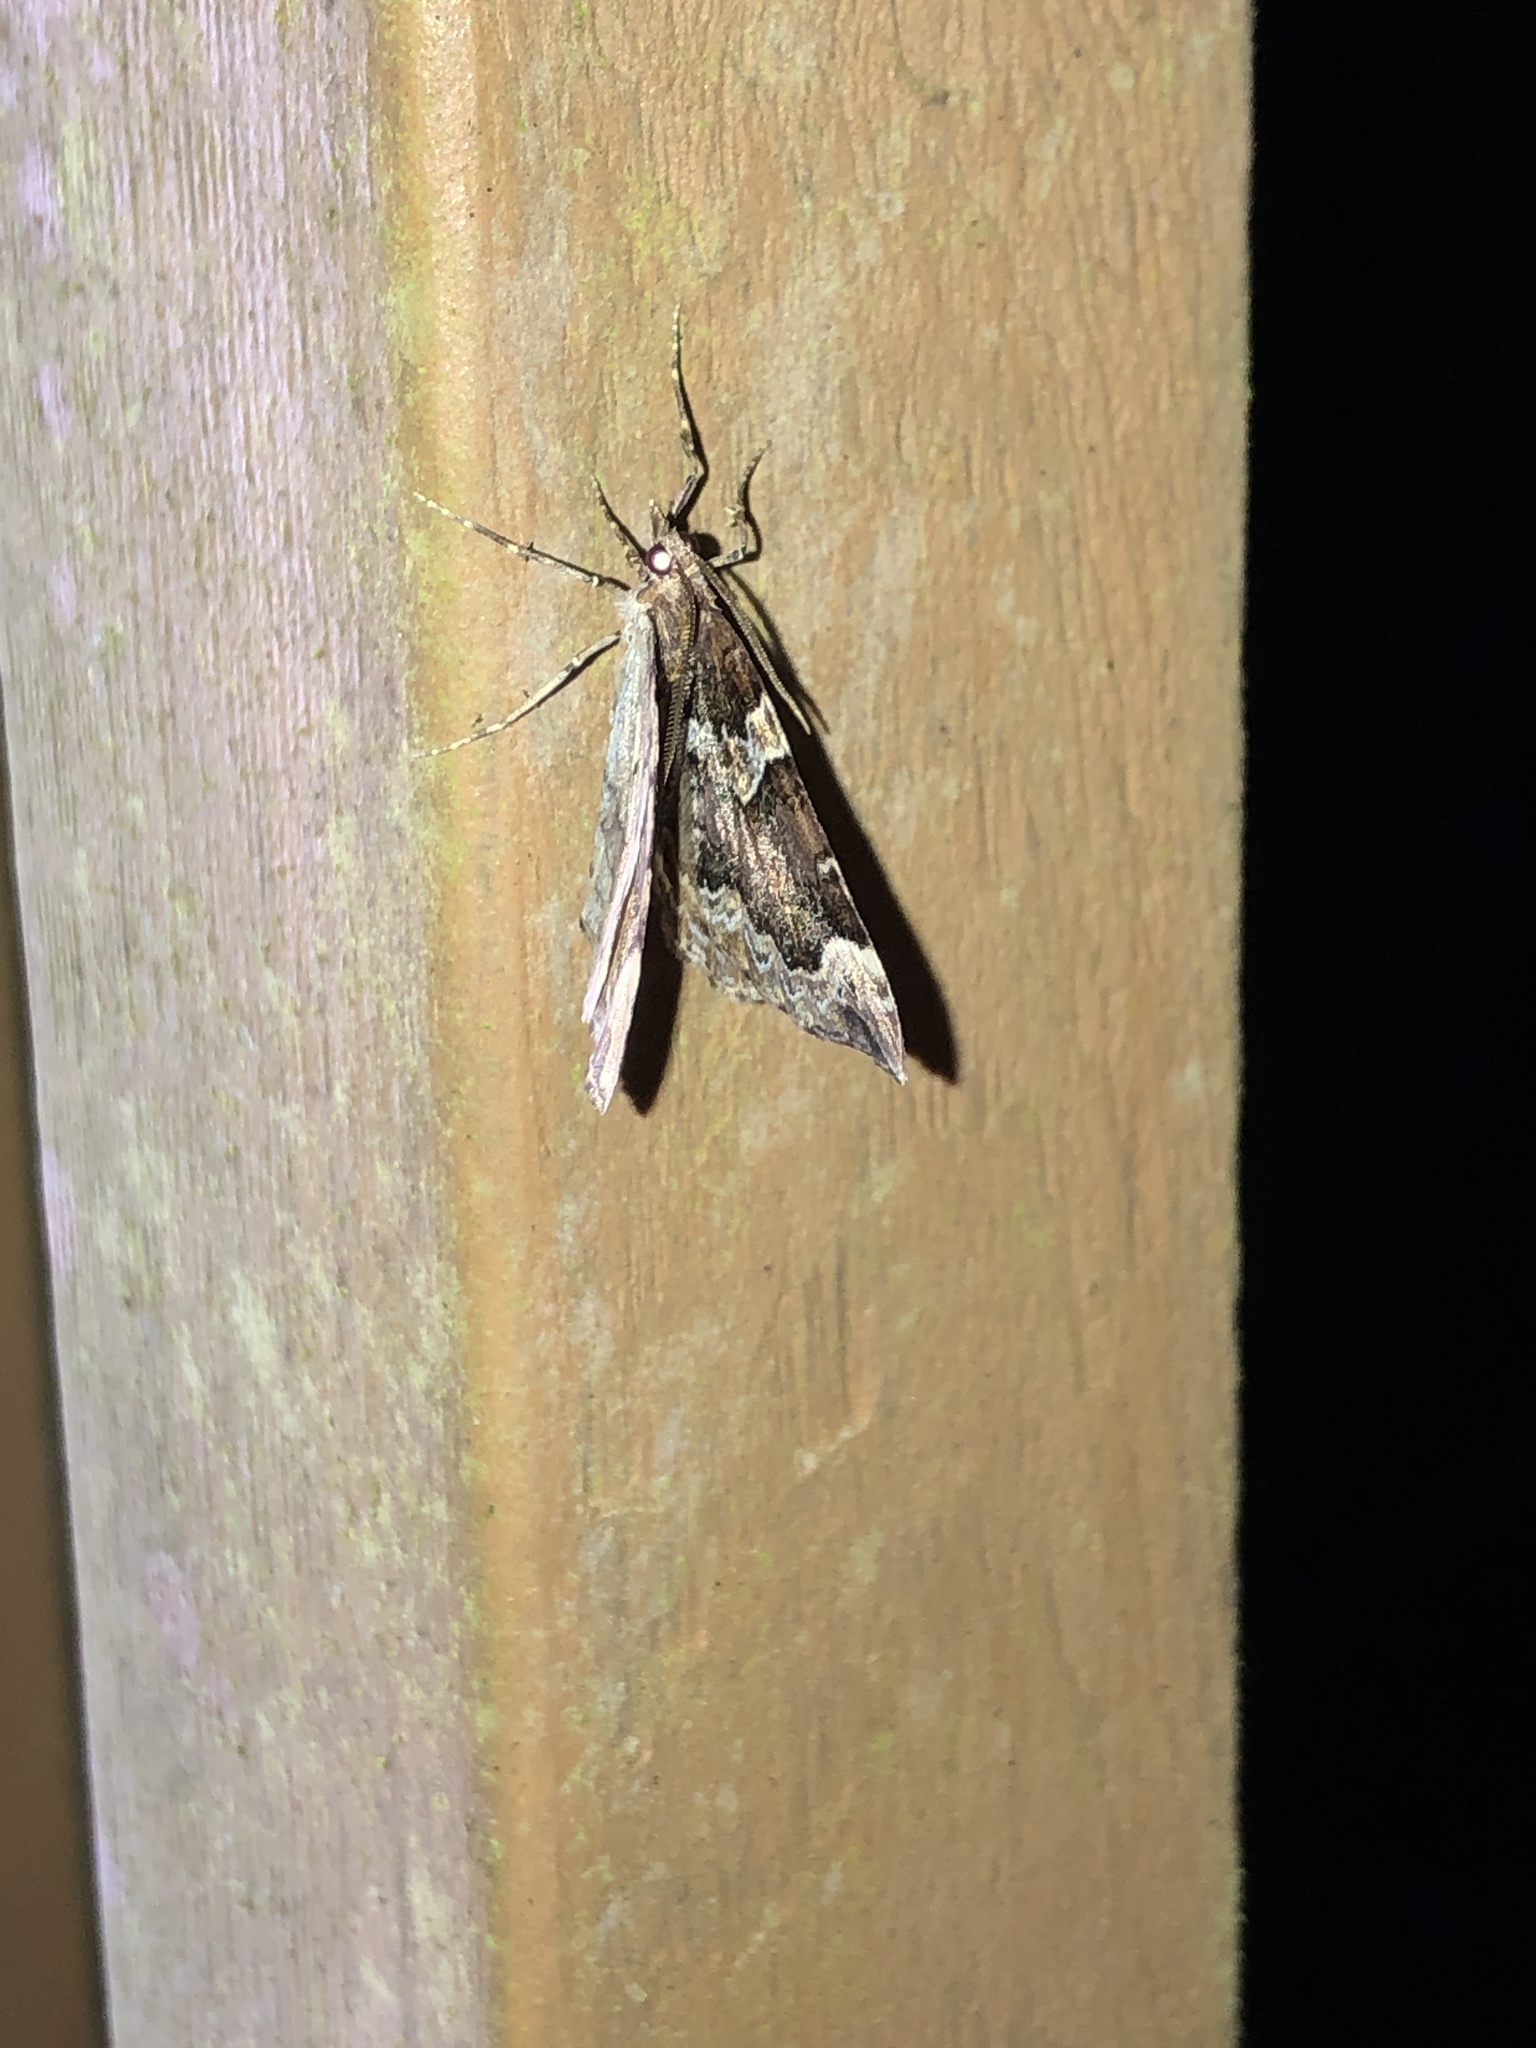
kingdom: Animalia
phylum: Arthropoda
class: Insecta
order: Lepidoptera
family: Geometridae
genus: Eulithis
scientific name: Eulithis xylina
